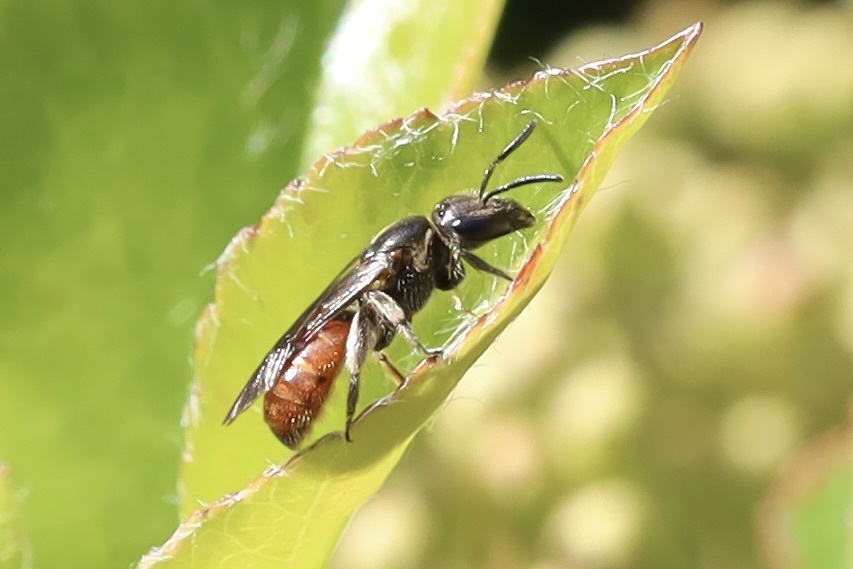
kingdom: Animalia
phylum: Arthropoda
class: Insecta
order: Hymenoptera
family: Halictidae
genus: Lasioglossum
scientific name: Lasioglossum ovaliceps
